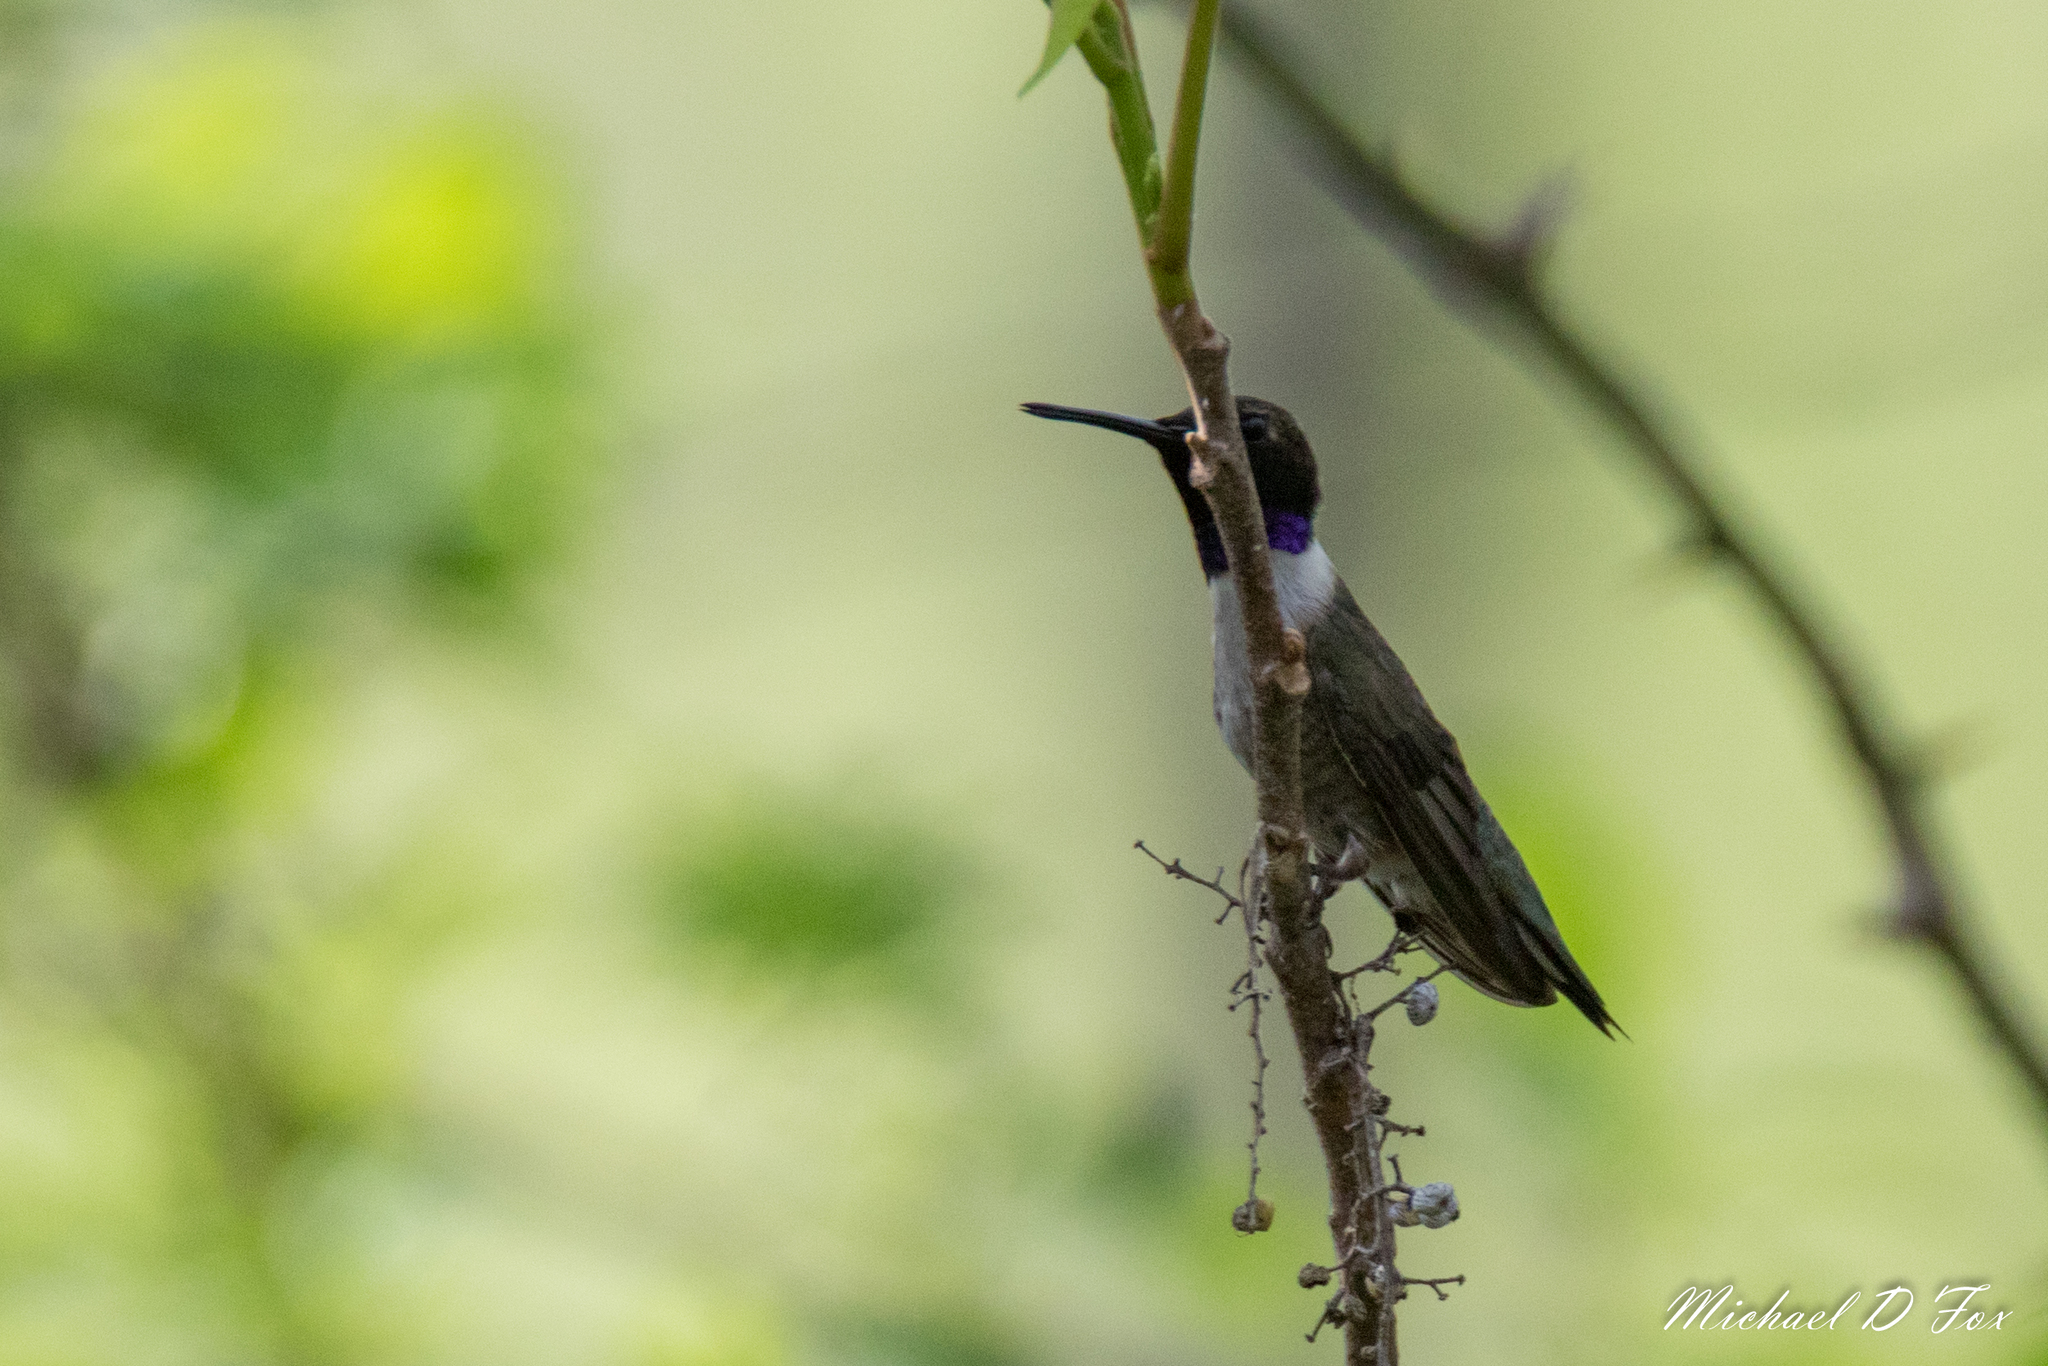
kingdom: Animalia
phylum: Chordata
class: Aves
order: Apodiformes
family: Trochilidae
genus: Archilochus
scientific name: Archilochus alexandri
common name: Black-chinned hummingbird
